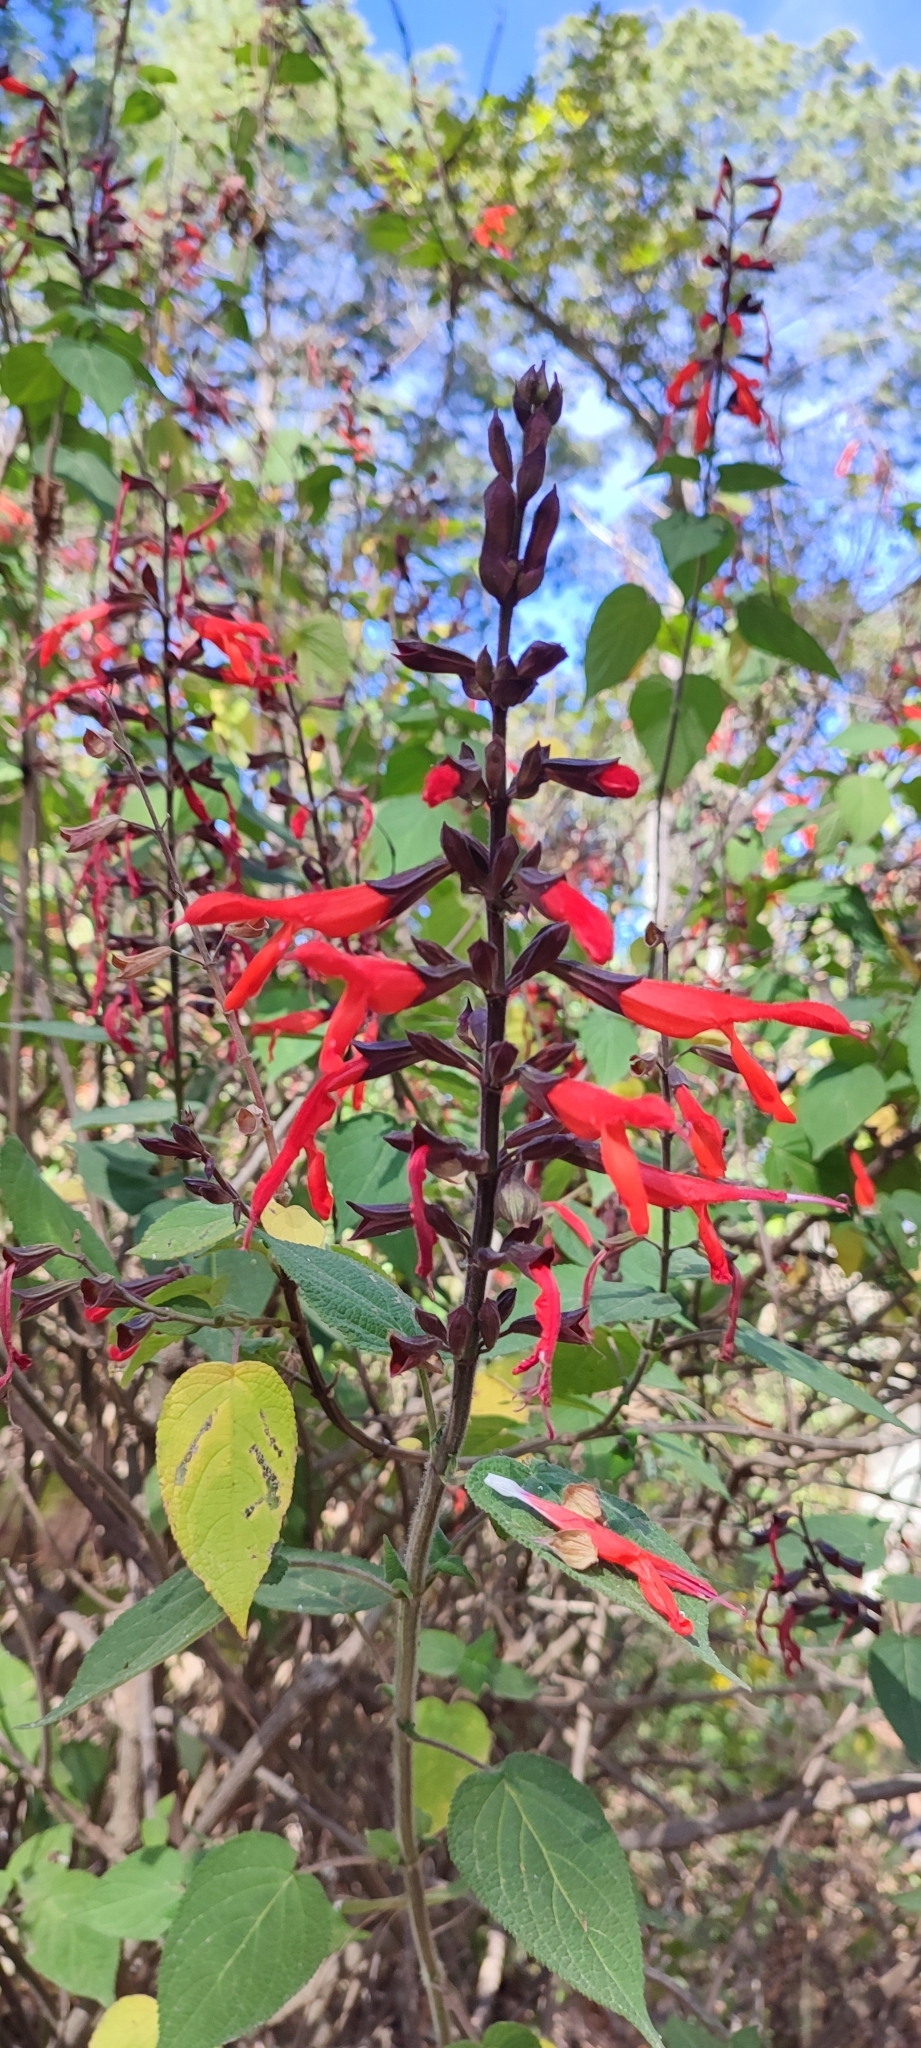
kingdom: Plantae
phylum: Tracheophyta
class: Magnoliopsida
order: Lamiales
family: Lamiaceae
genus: Salvia
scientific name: Salvia gesneriiflora
